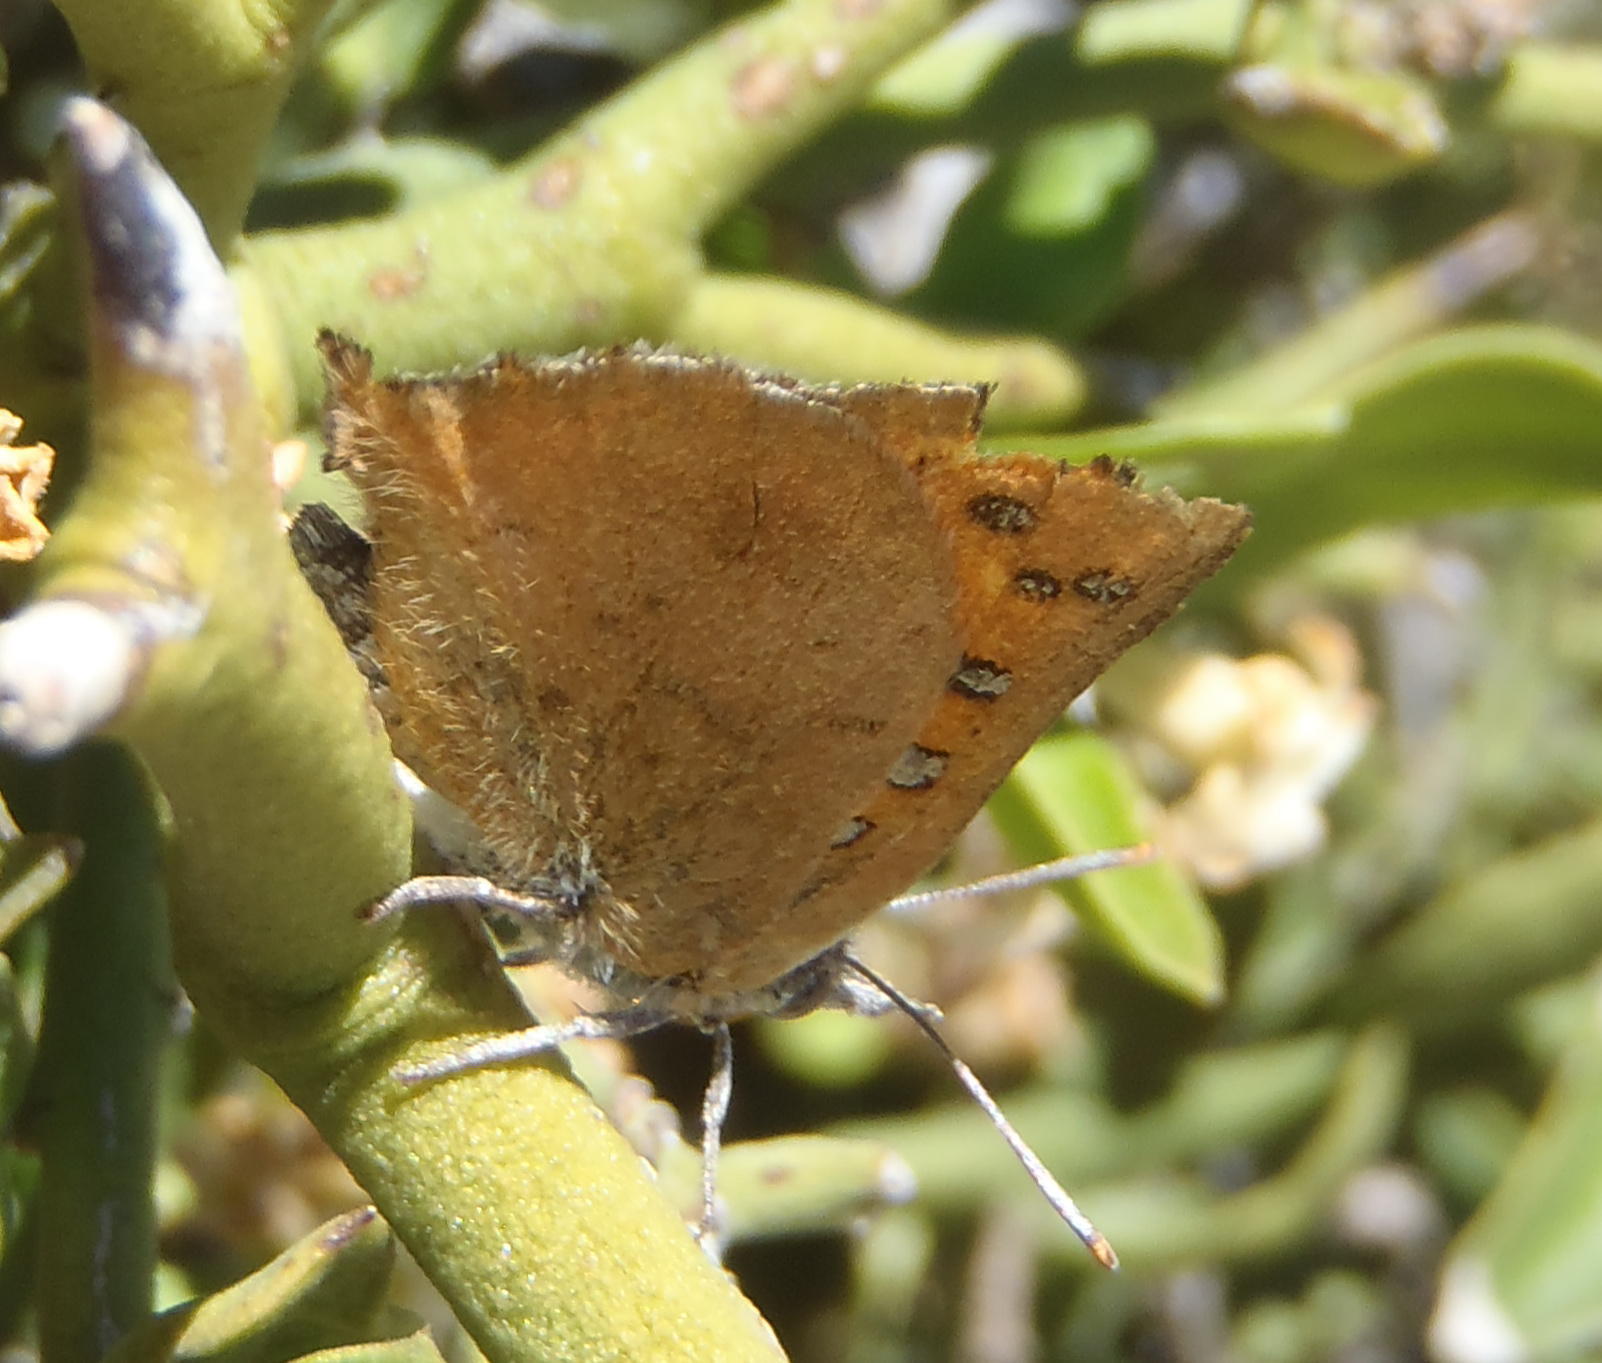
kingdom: Animalia
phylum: Arthropoda
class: Insecta
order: Lepidoptera
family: Lycaenidae
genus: Zeritis
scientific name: Zeritis chrysaor
